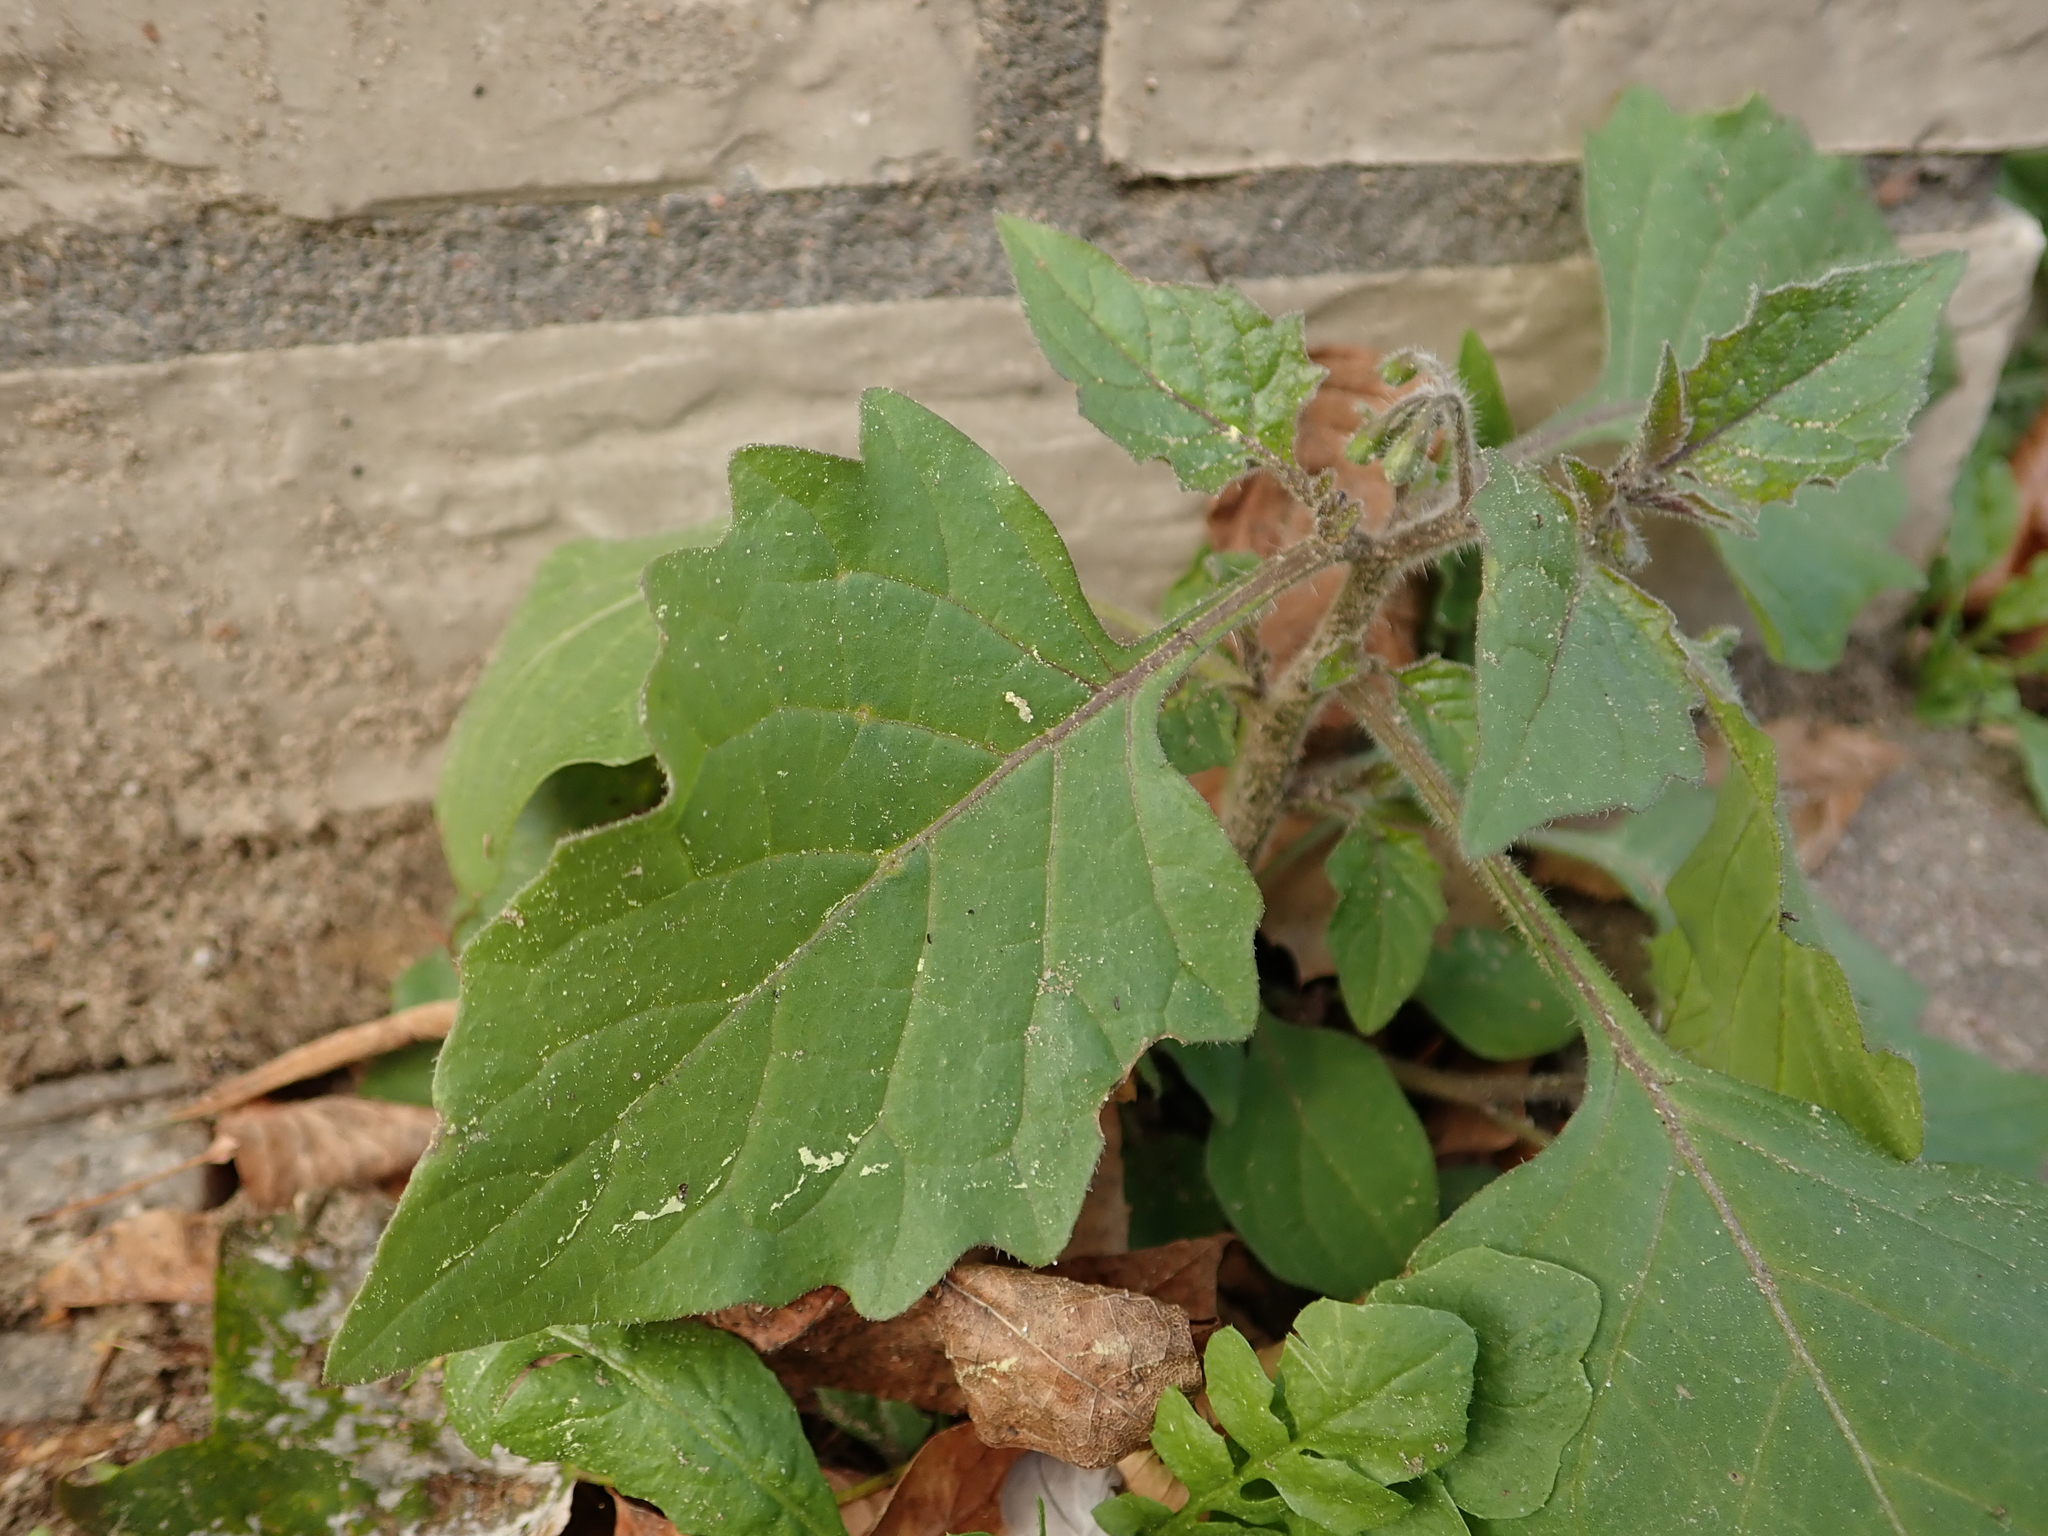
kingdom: Plantae
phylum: Tracheophyta
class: Magnoliopsida
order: Solanales
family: Solanaceae
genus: Solanum
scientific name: Solanum nigrum
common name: Black nightshade
